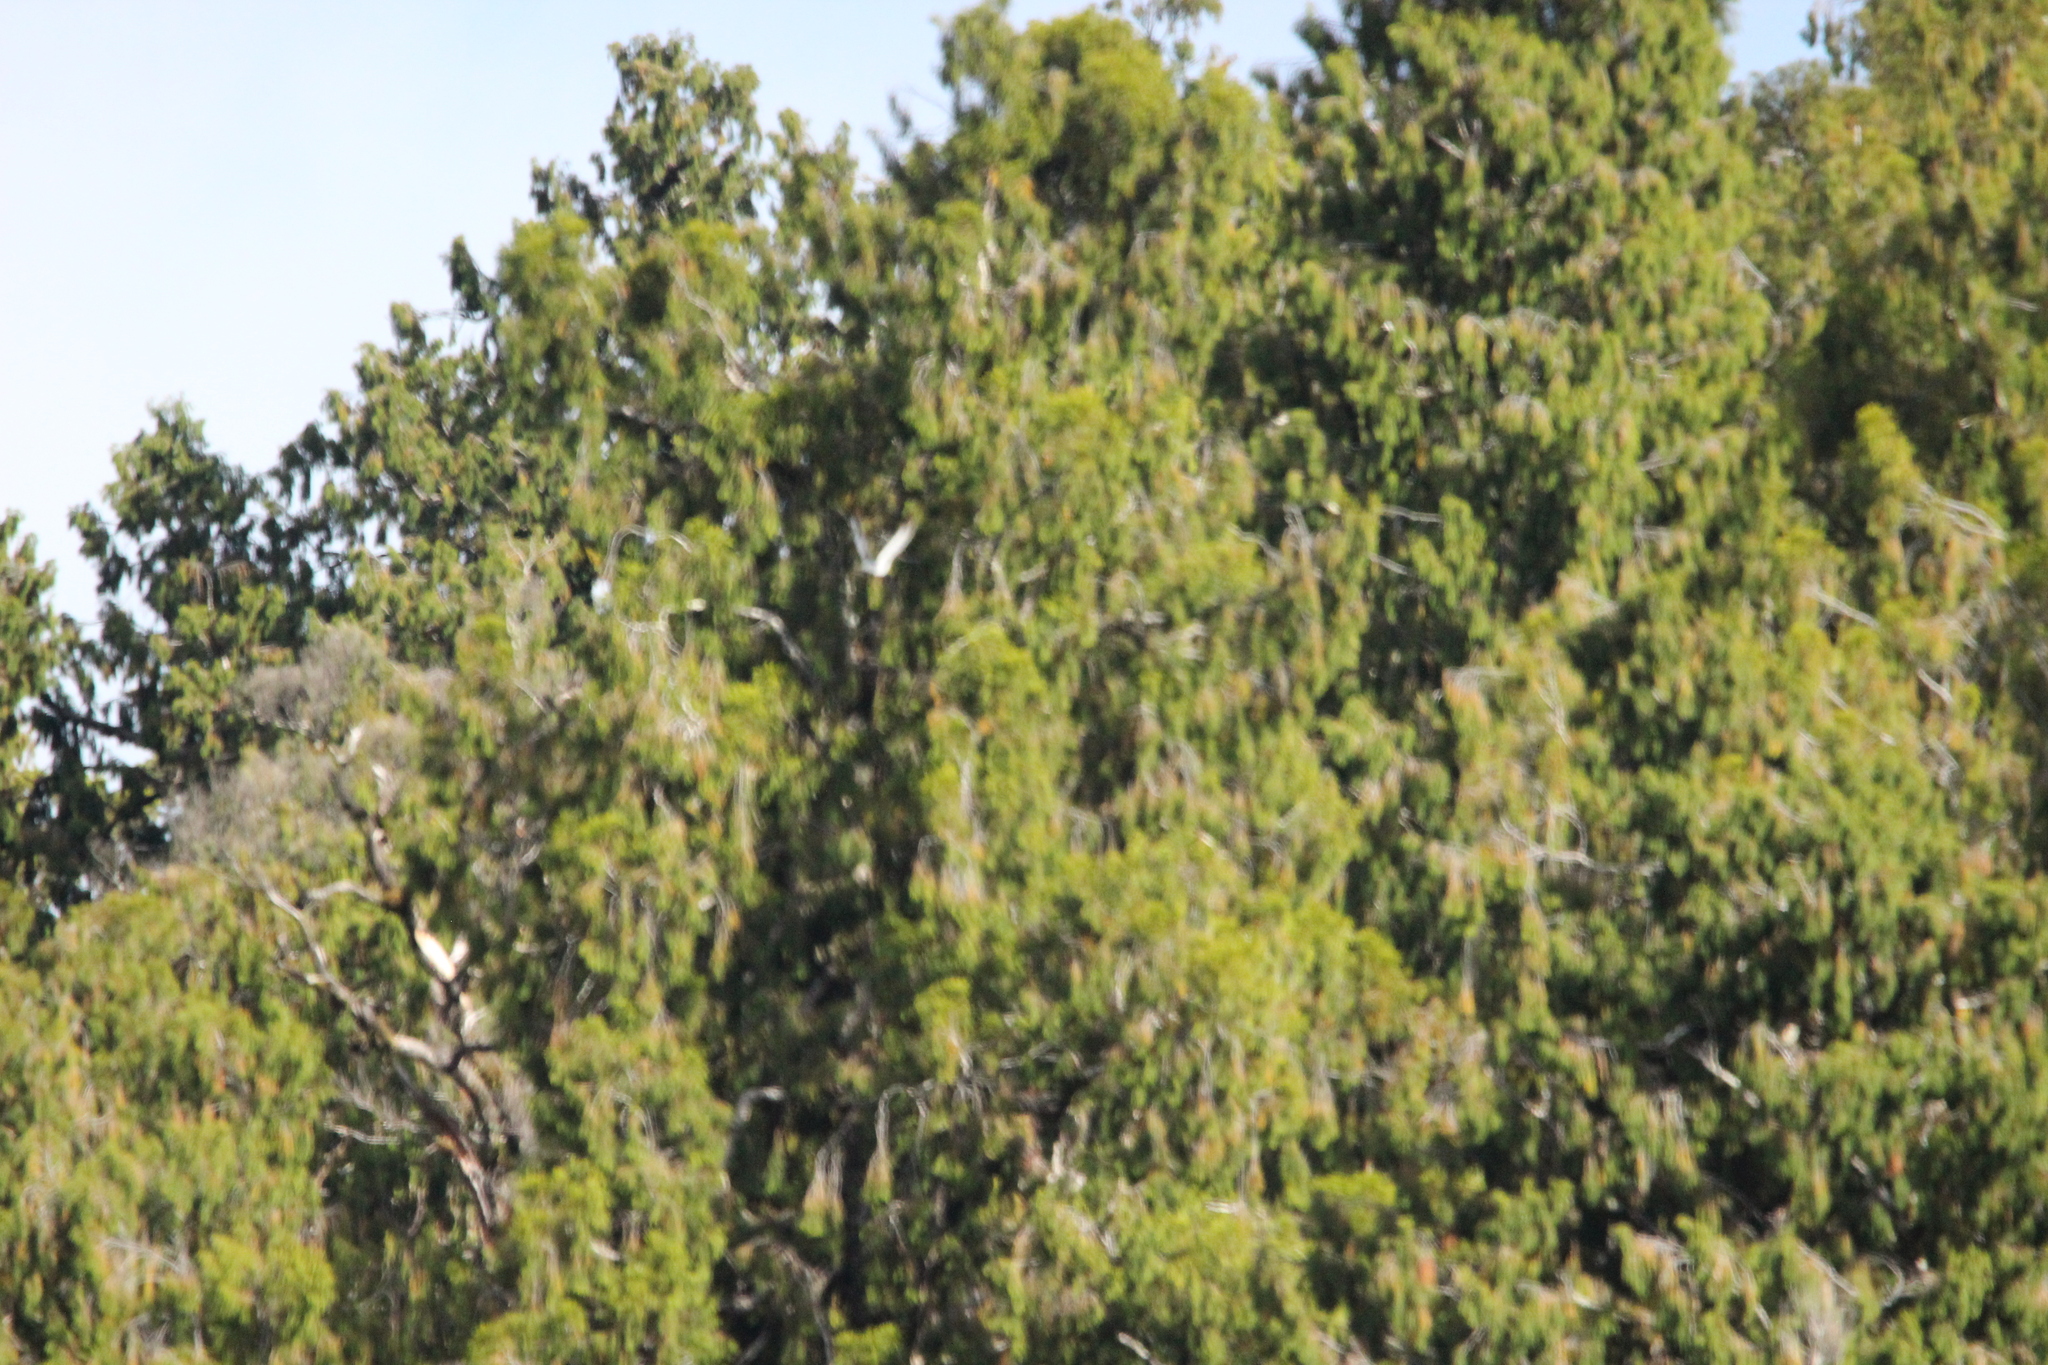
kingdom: Animalia
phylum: Chordata
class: Aves
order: Columbiformes
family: Columbidae
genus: Hemiphaga
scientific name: Hemiphaga novaeseelandiae
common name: New zealand pigeon
